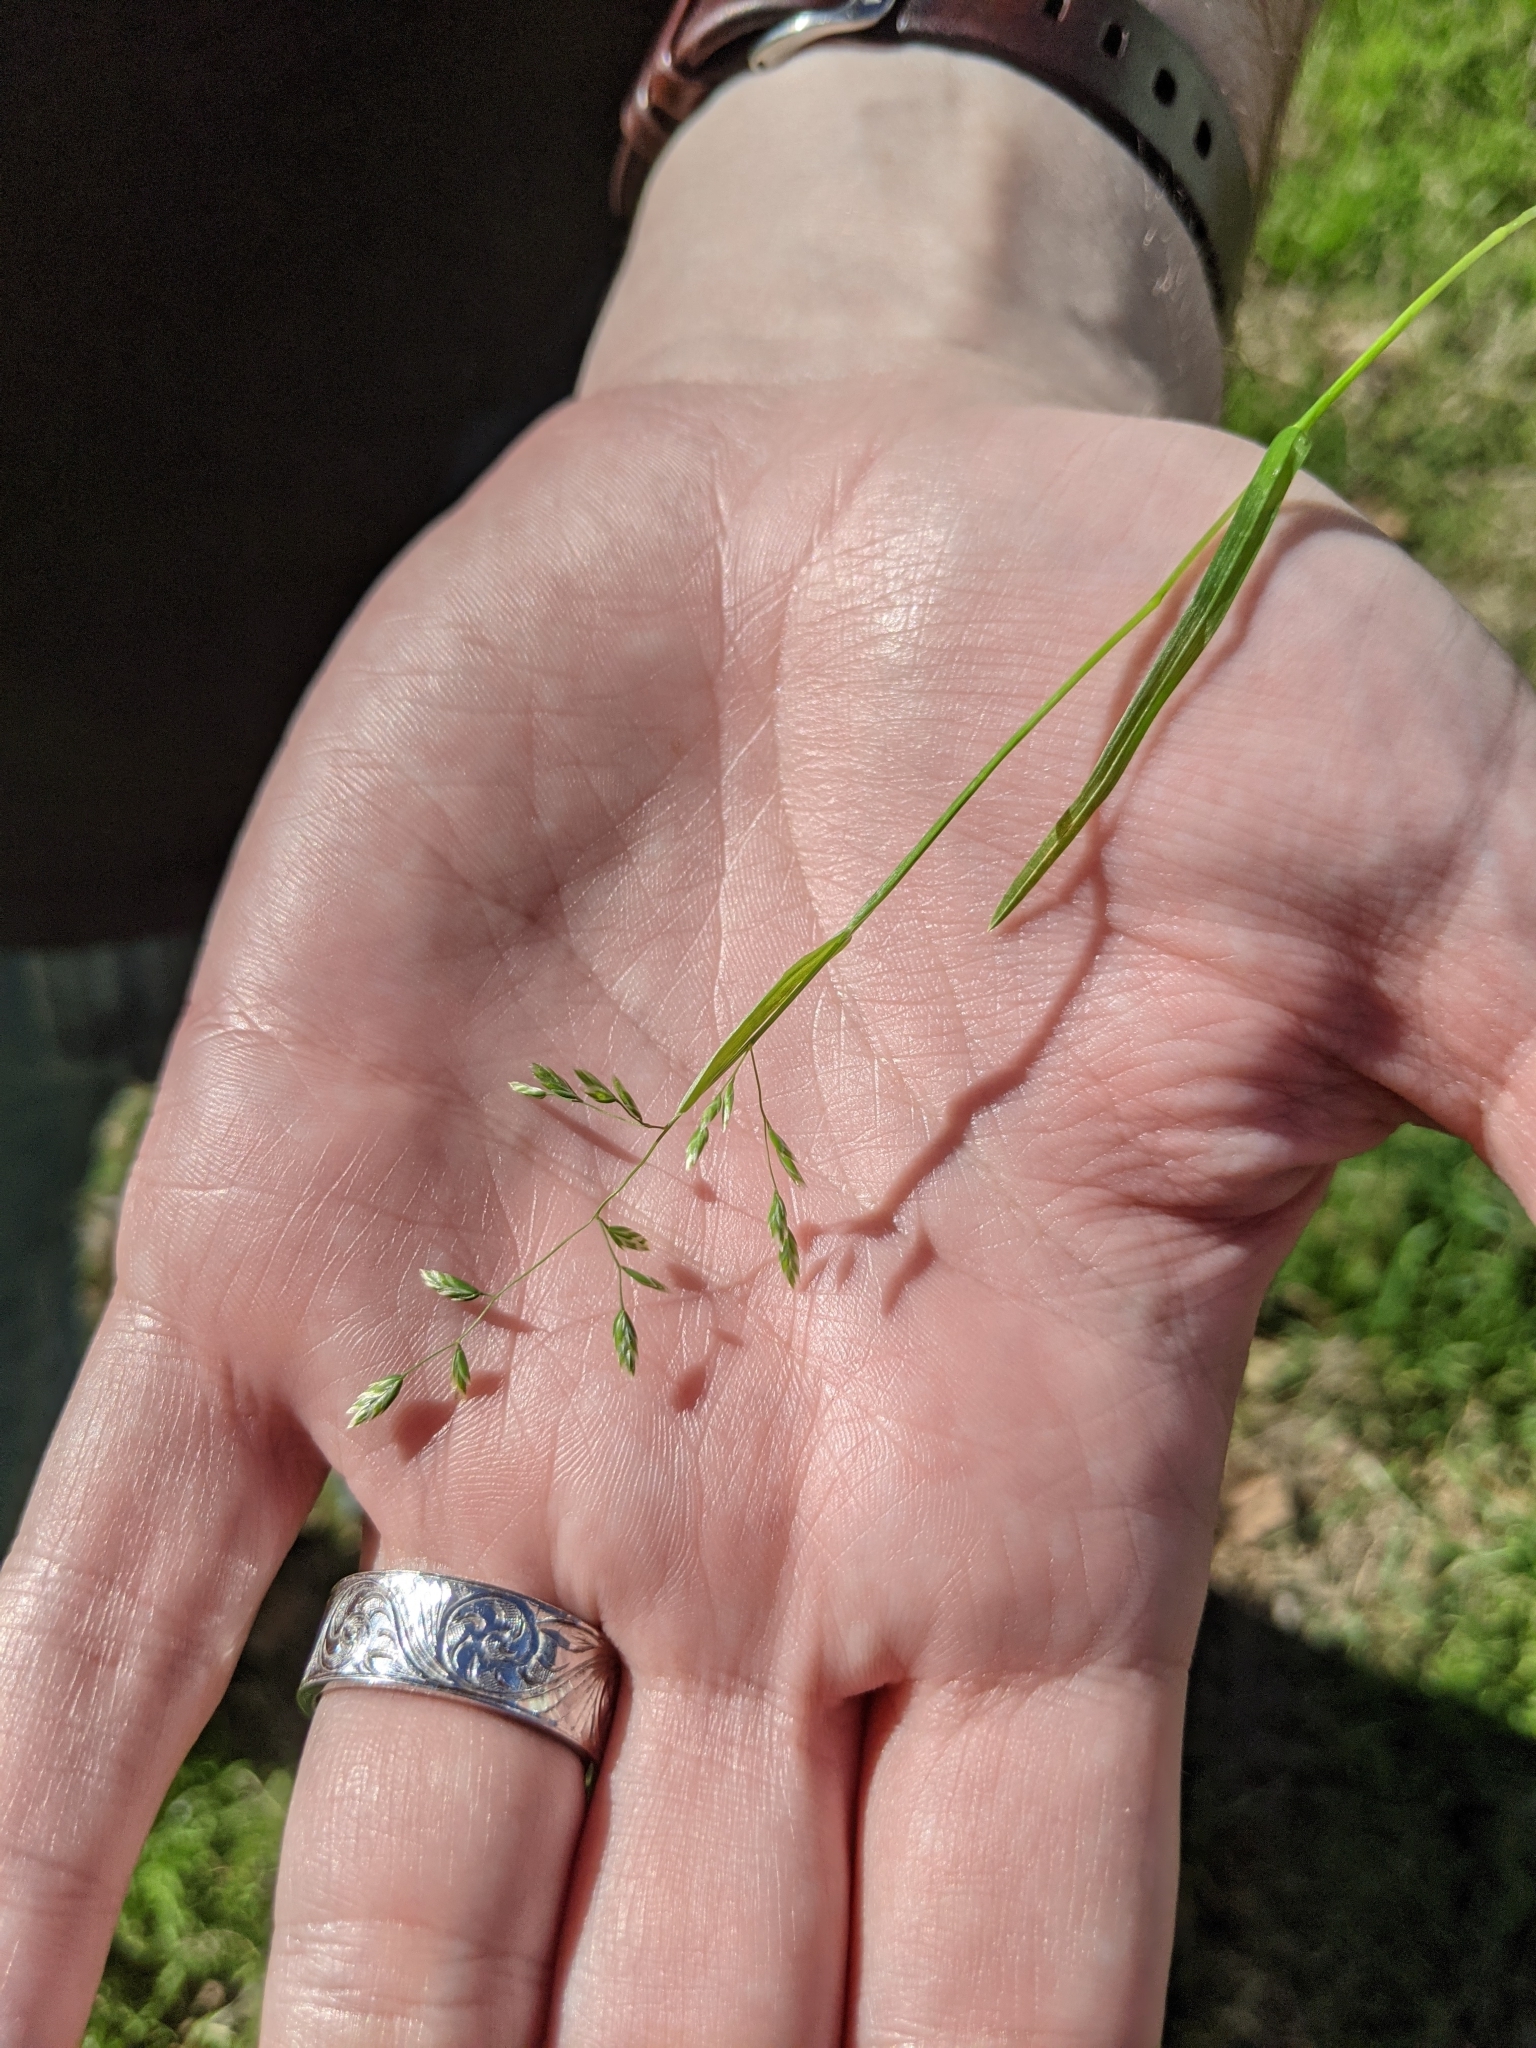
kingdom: Plantae
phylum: Tracheophyta
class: Liliopsida
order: Poales
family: Poaceae
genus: Poa
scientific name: Poa annua
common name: Annual bluegrass
